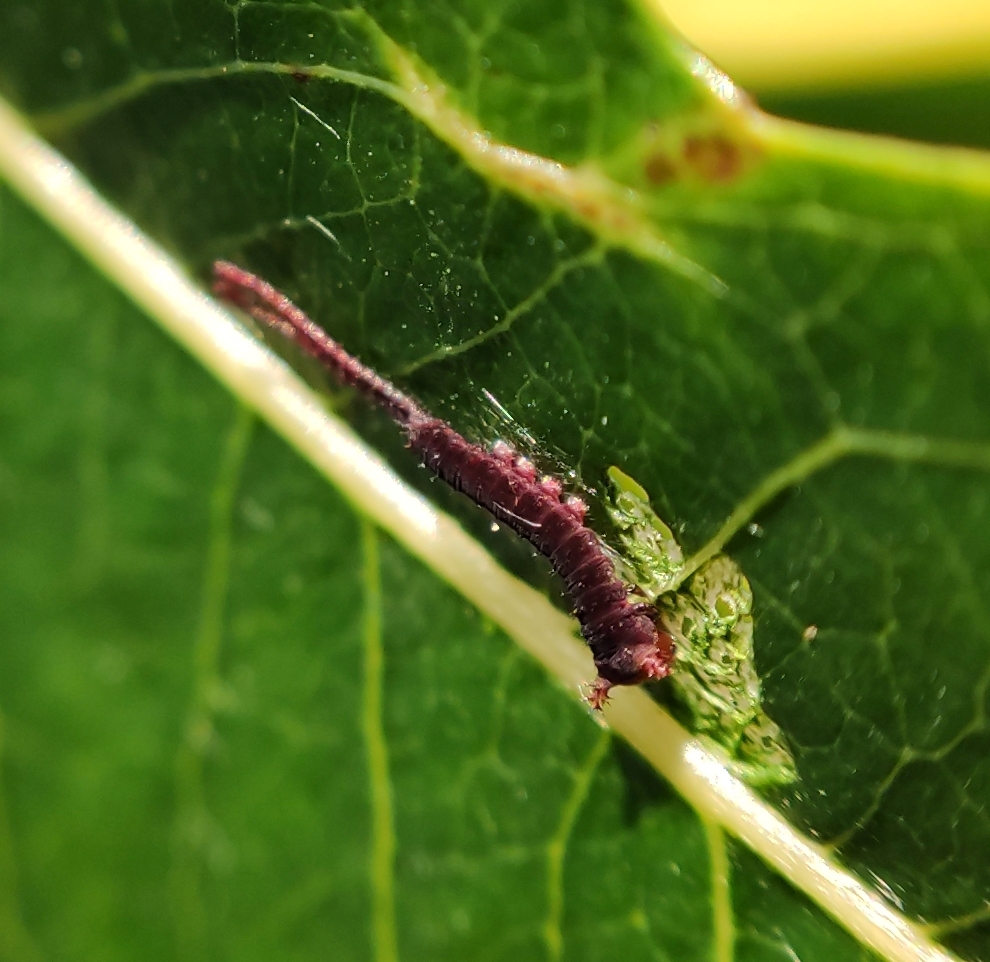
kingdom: Animalia
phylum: Arthropoda
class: Insecta
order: Lepidoptera
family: Notodontidae
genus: Cerura
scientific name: Cerura erminea
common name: Lesser puss moth
